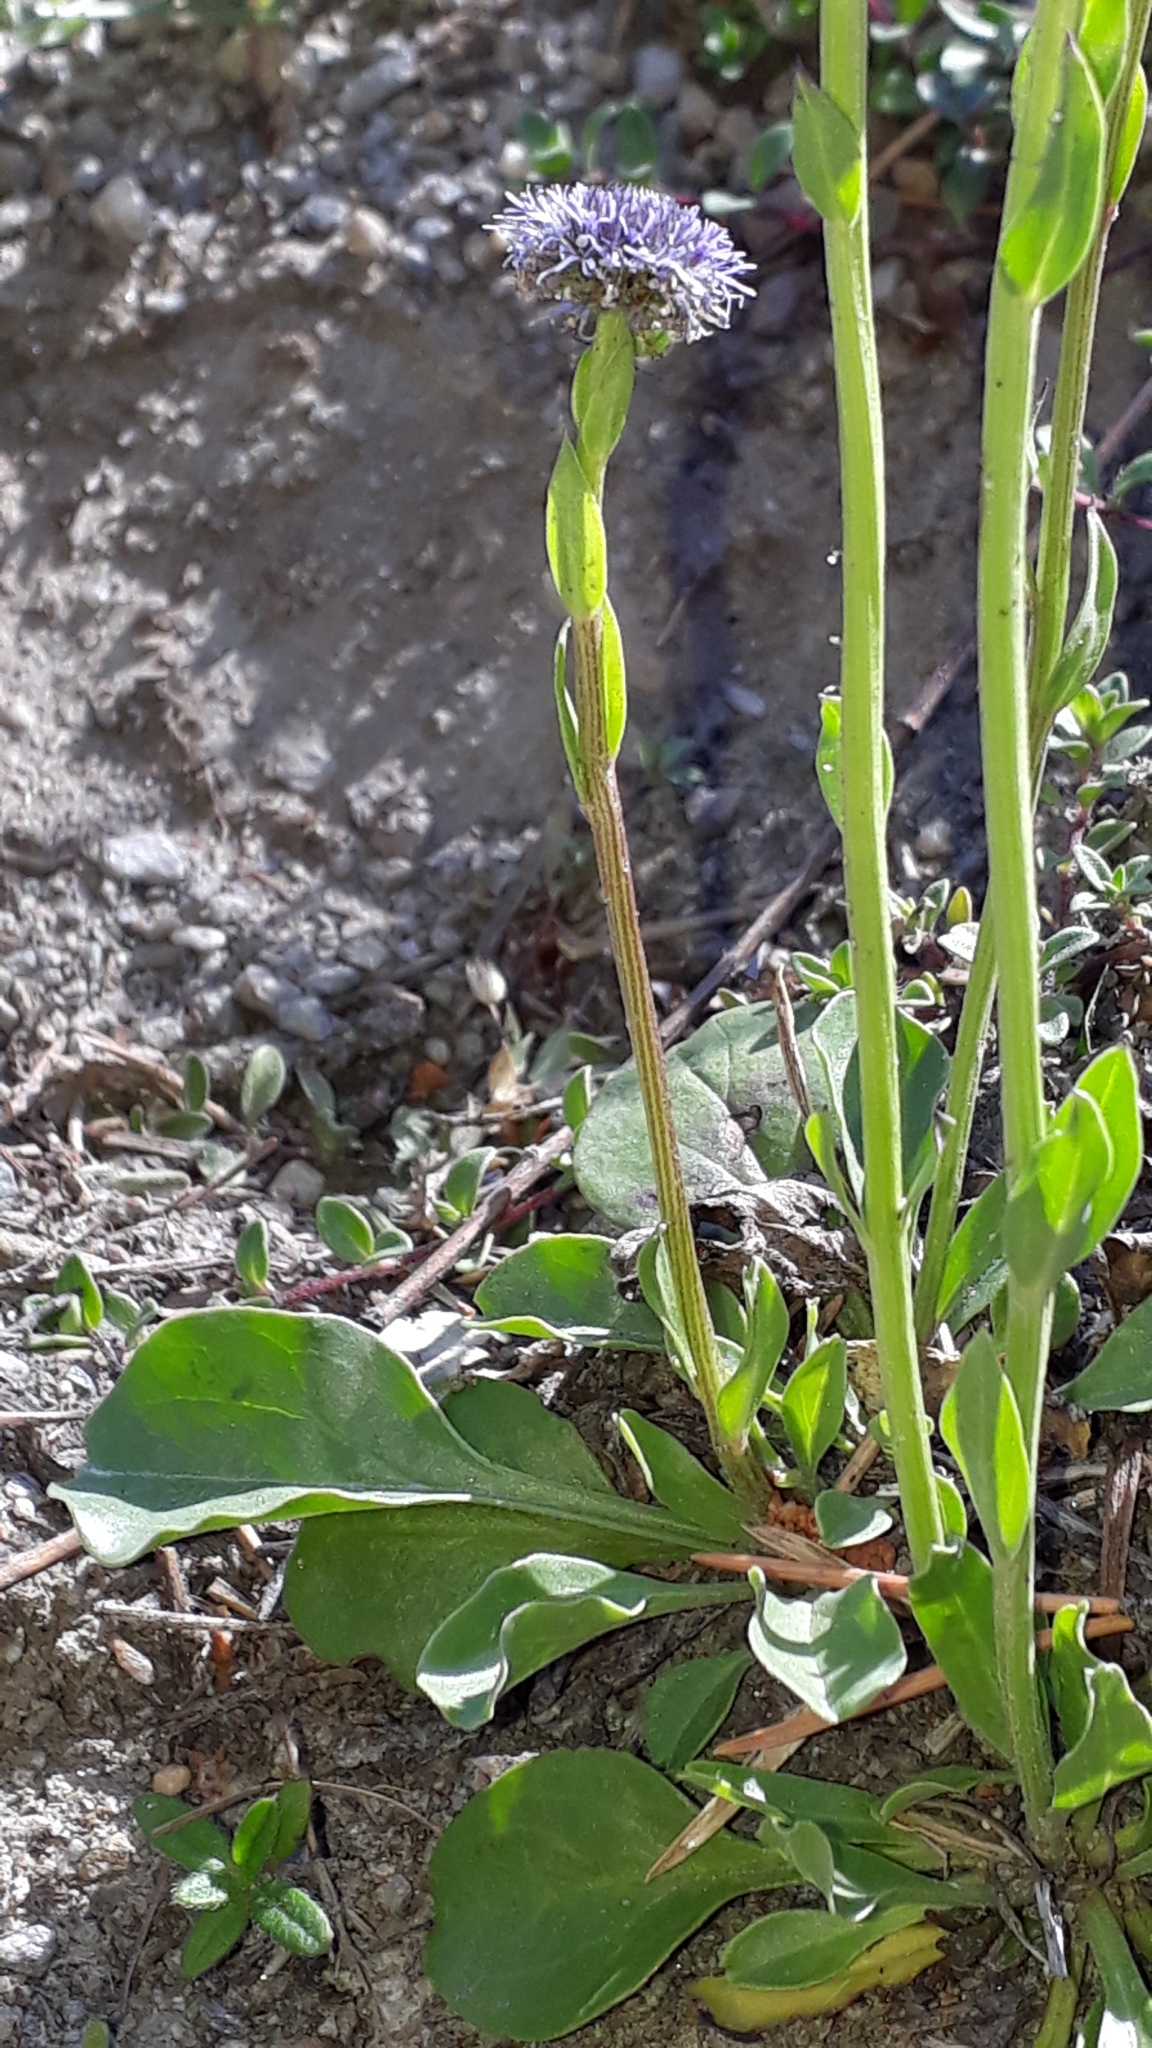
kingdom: Plantae
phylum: Tracheophyta
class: Magnoliopsida
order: Lamiales
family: Plantaginaceae
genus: Globularia
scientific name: Globularia bisnagarica
